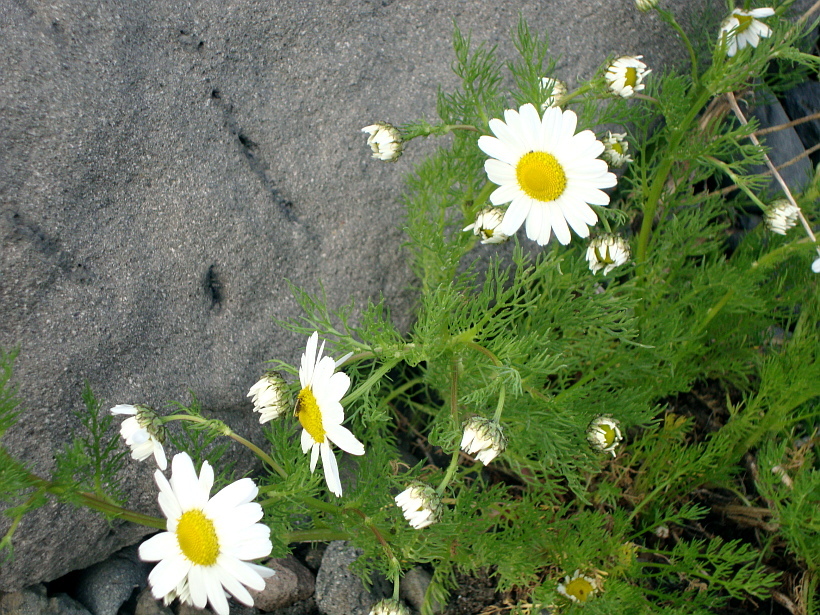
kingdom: Plantae
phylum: Tracheophyta
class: Magnoliopsida
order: Asterales
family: Asteraceae
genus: Tripleurospermum
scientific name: Tripleurospermum maritimum
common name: Sea mayweed
